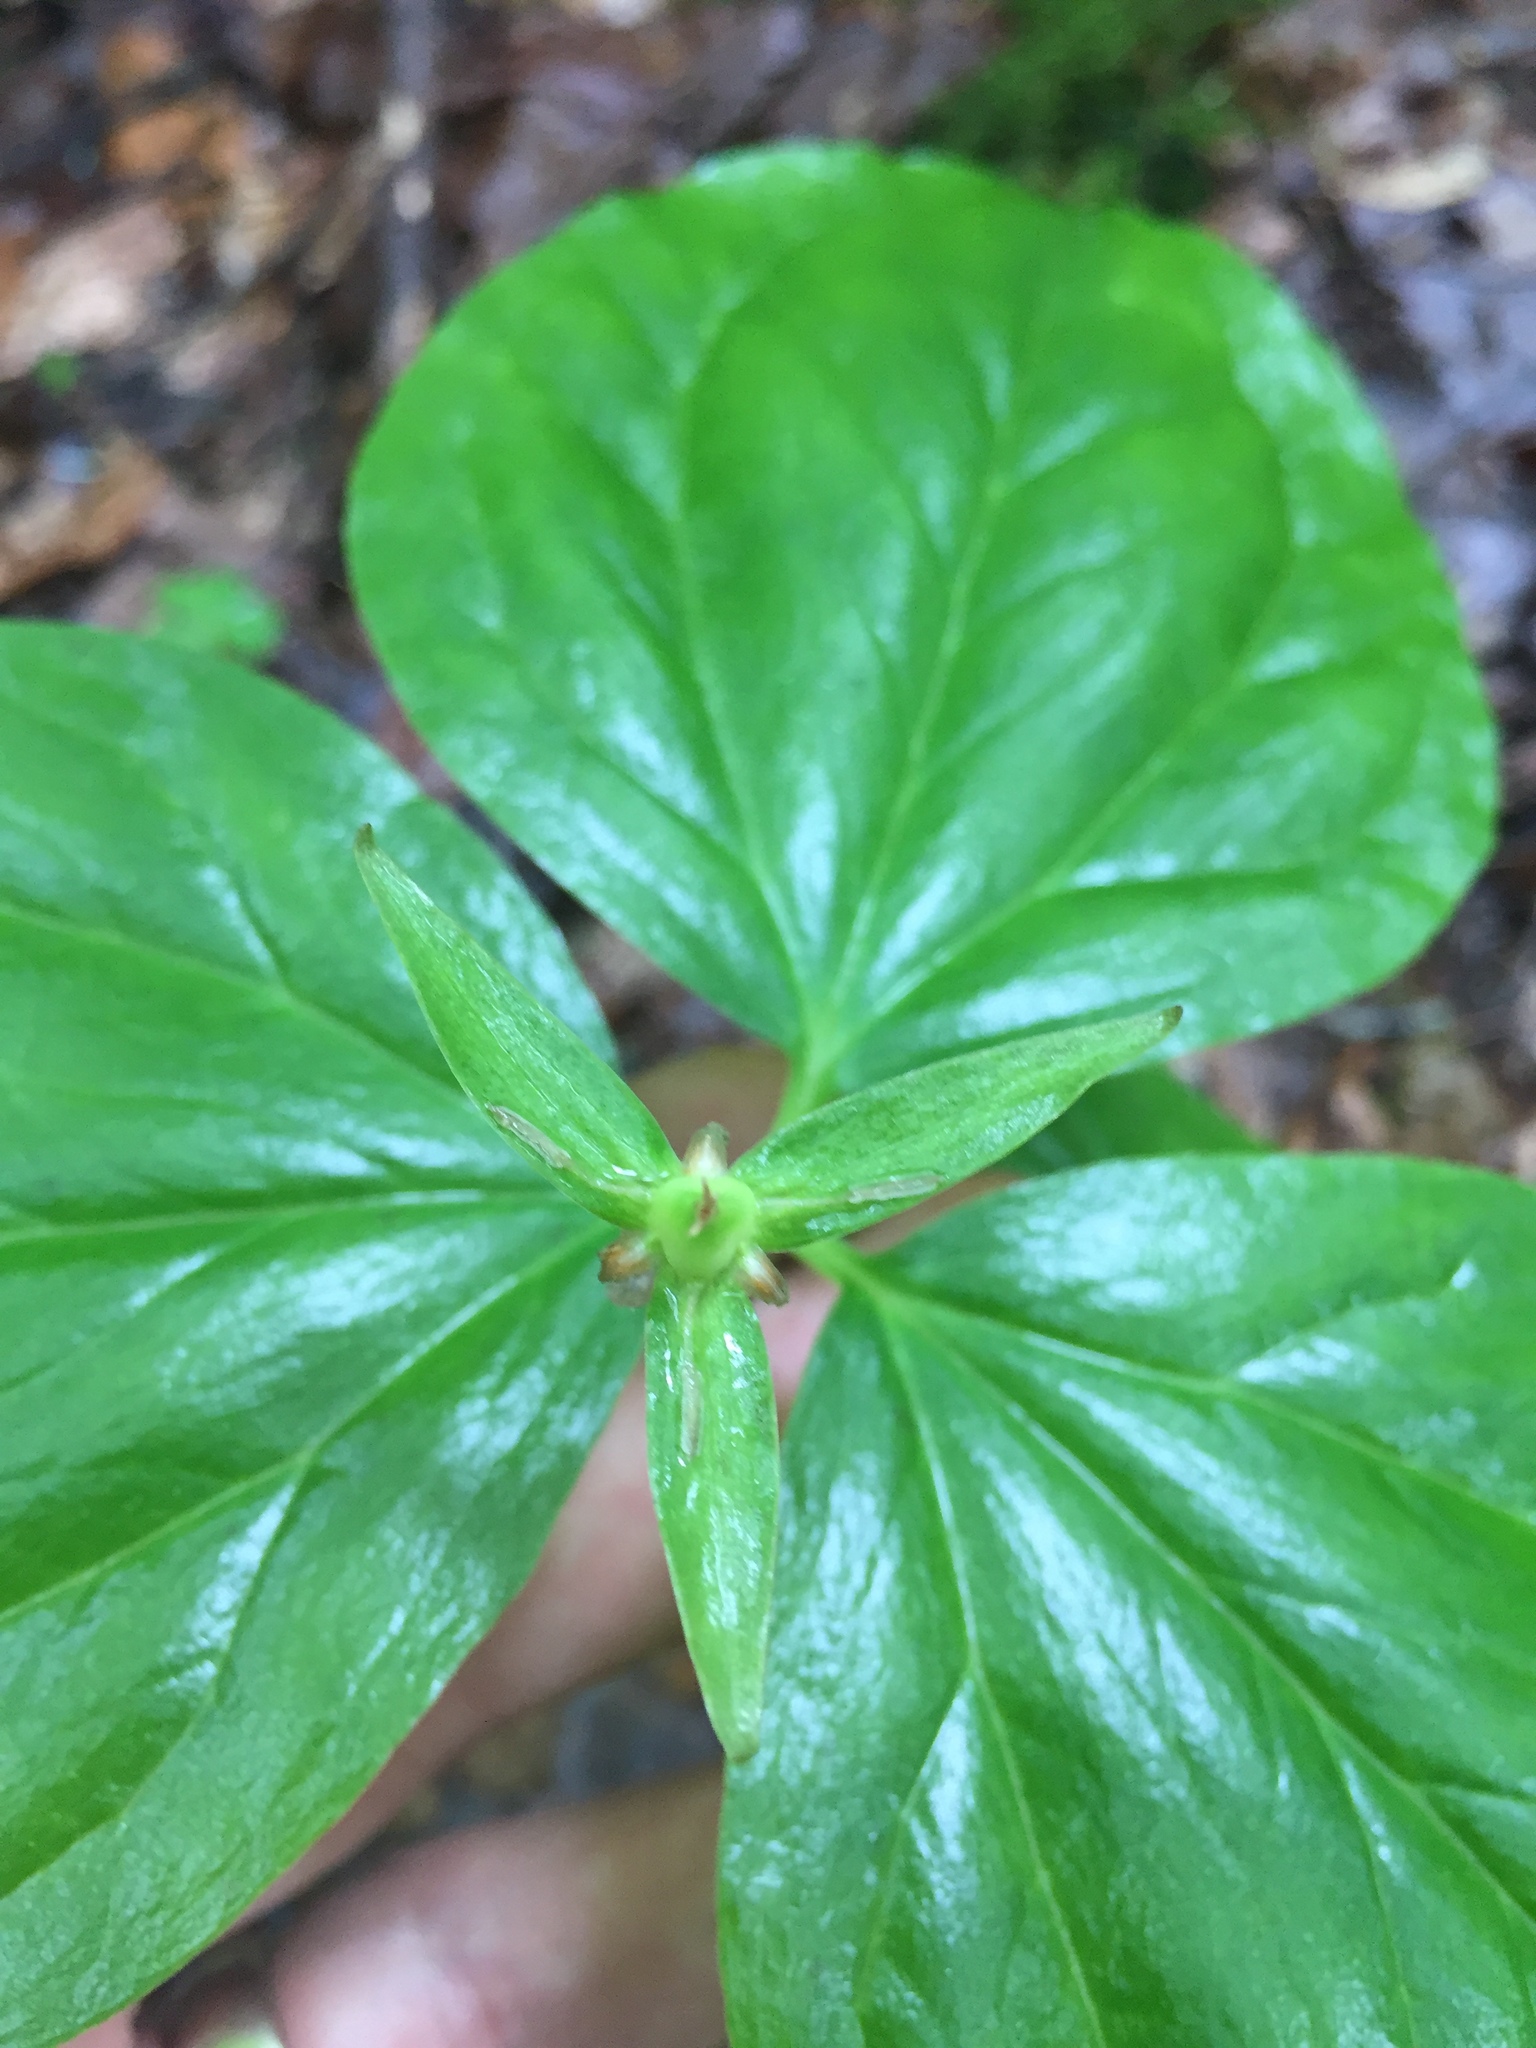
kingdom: Plantae
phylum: Tracheophyta
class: Liliopsida
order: Liliales
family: Melanthiaceae
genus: Trillium
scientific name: Trillium undulatum
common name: Paint trillium
